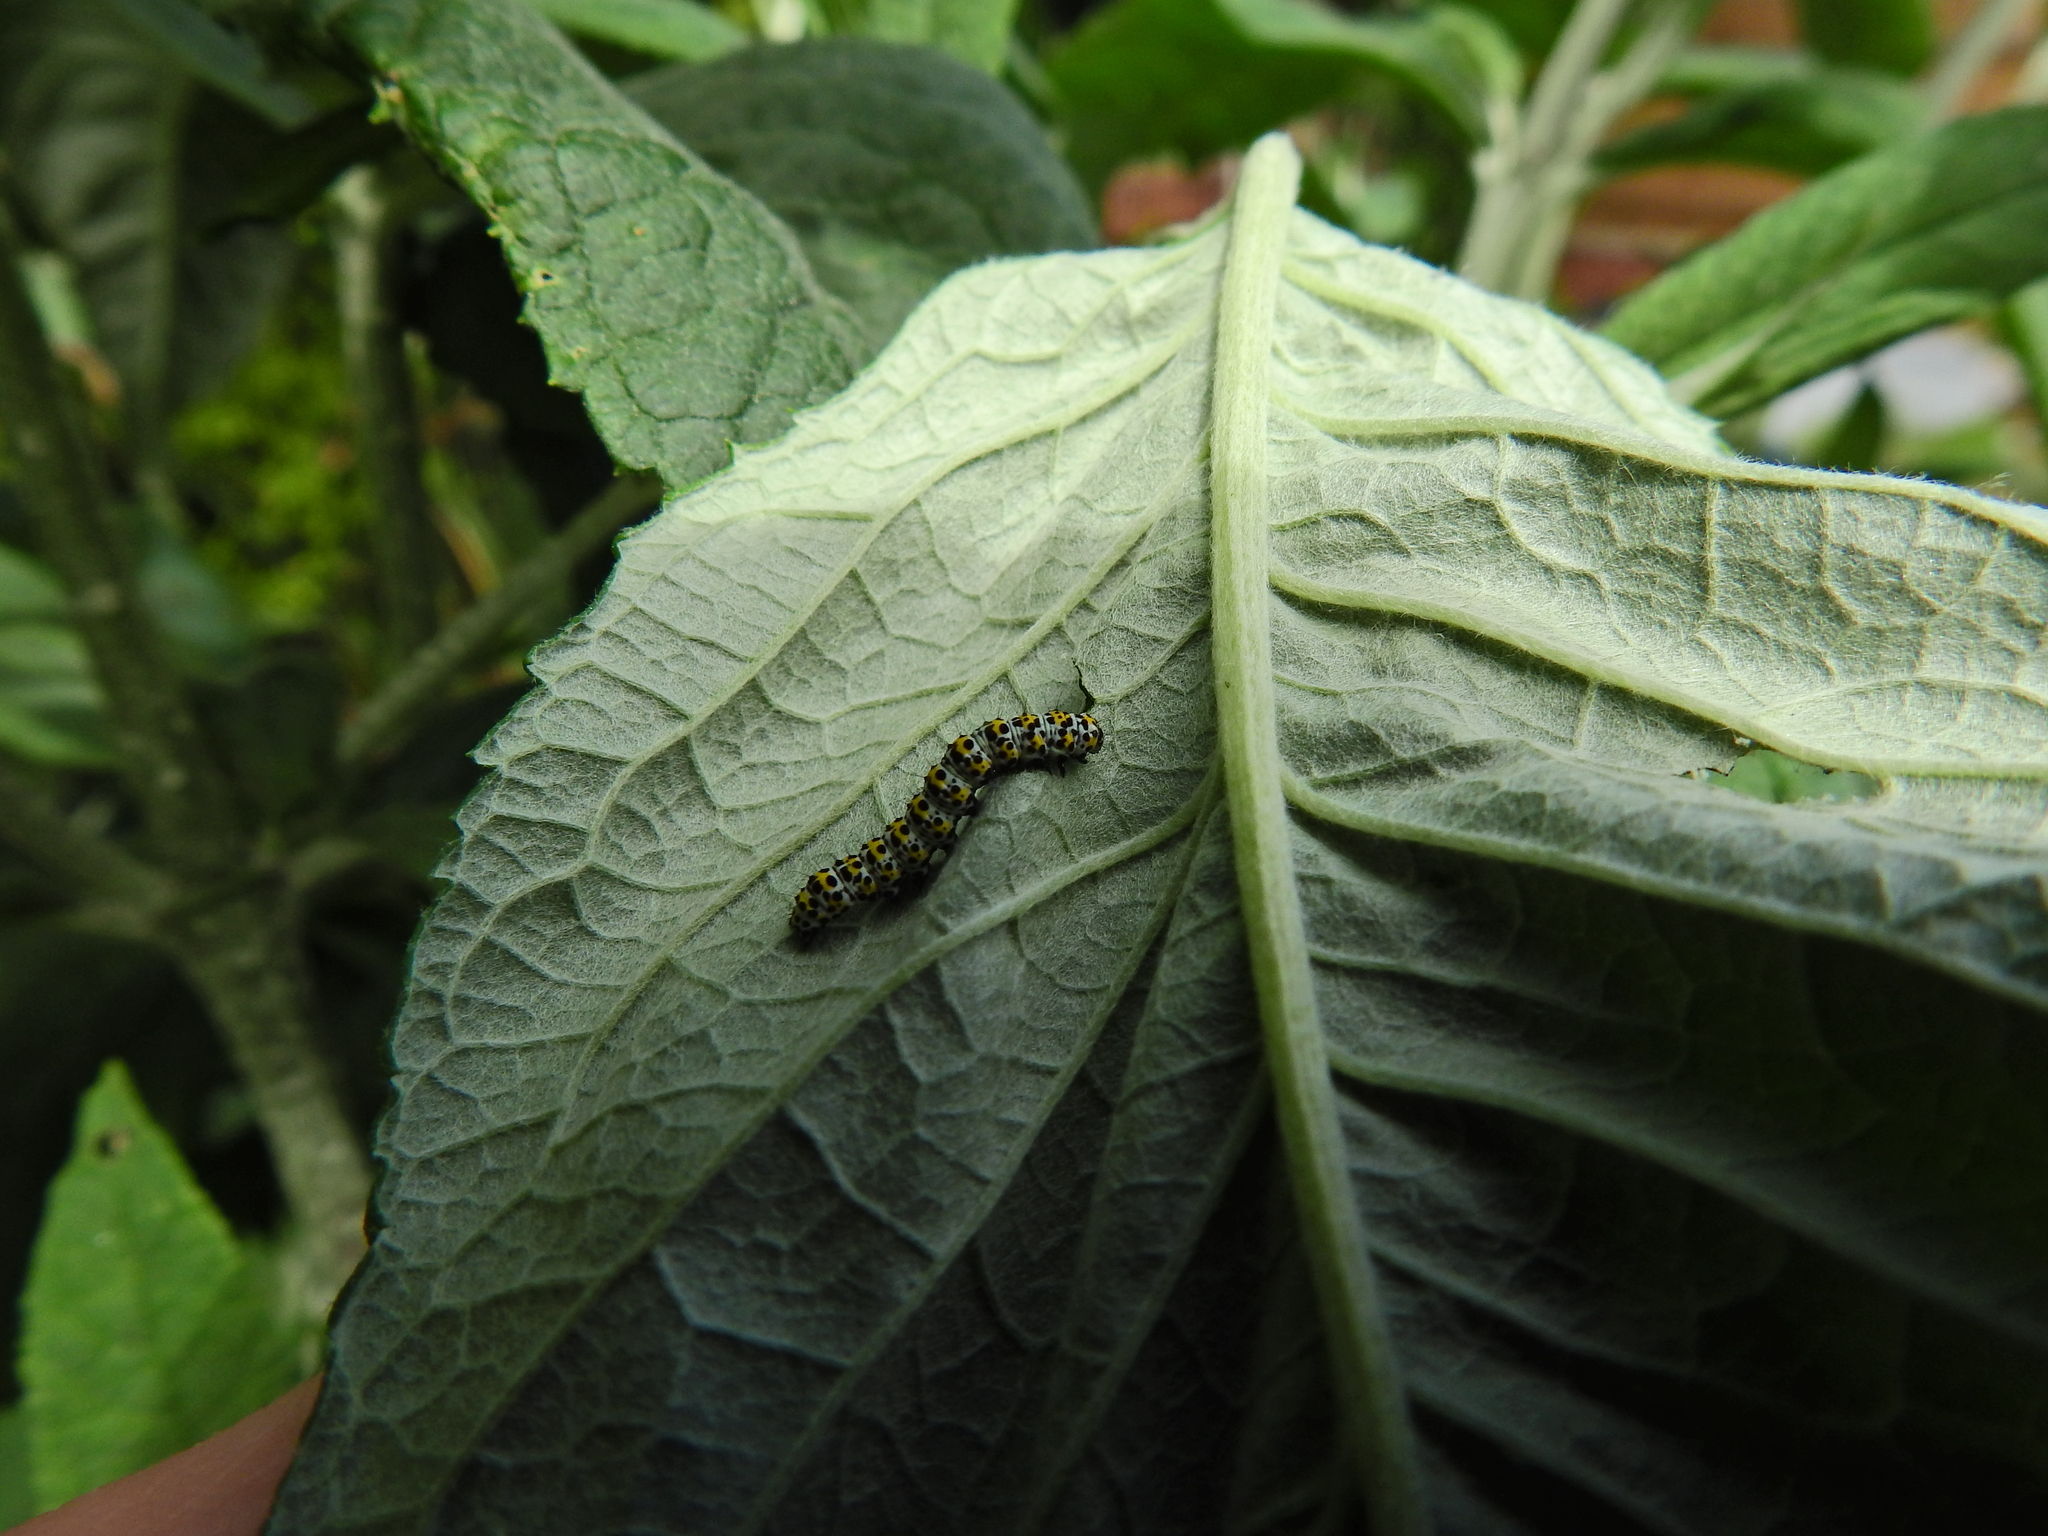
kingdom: Animalia
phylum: Arthropoda
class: Insecta
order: Lepidoptera
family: Noctuidae
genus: Cucullia
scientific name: Cucullia verbasci
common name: Mullein
